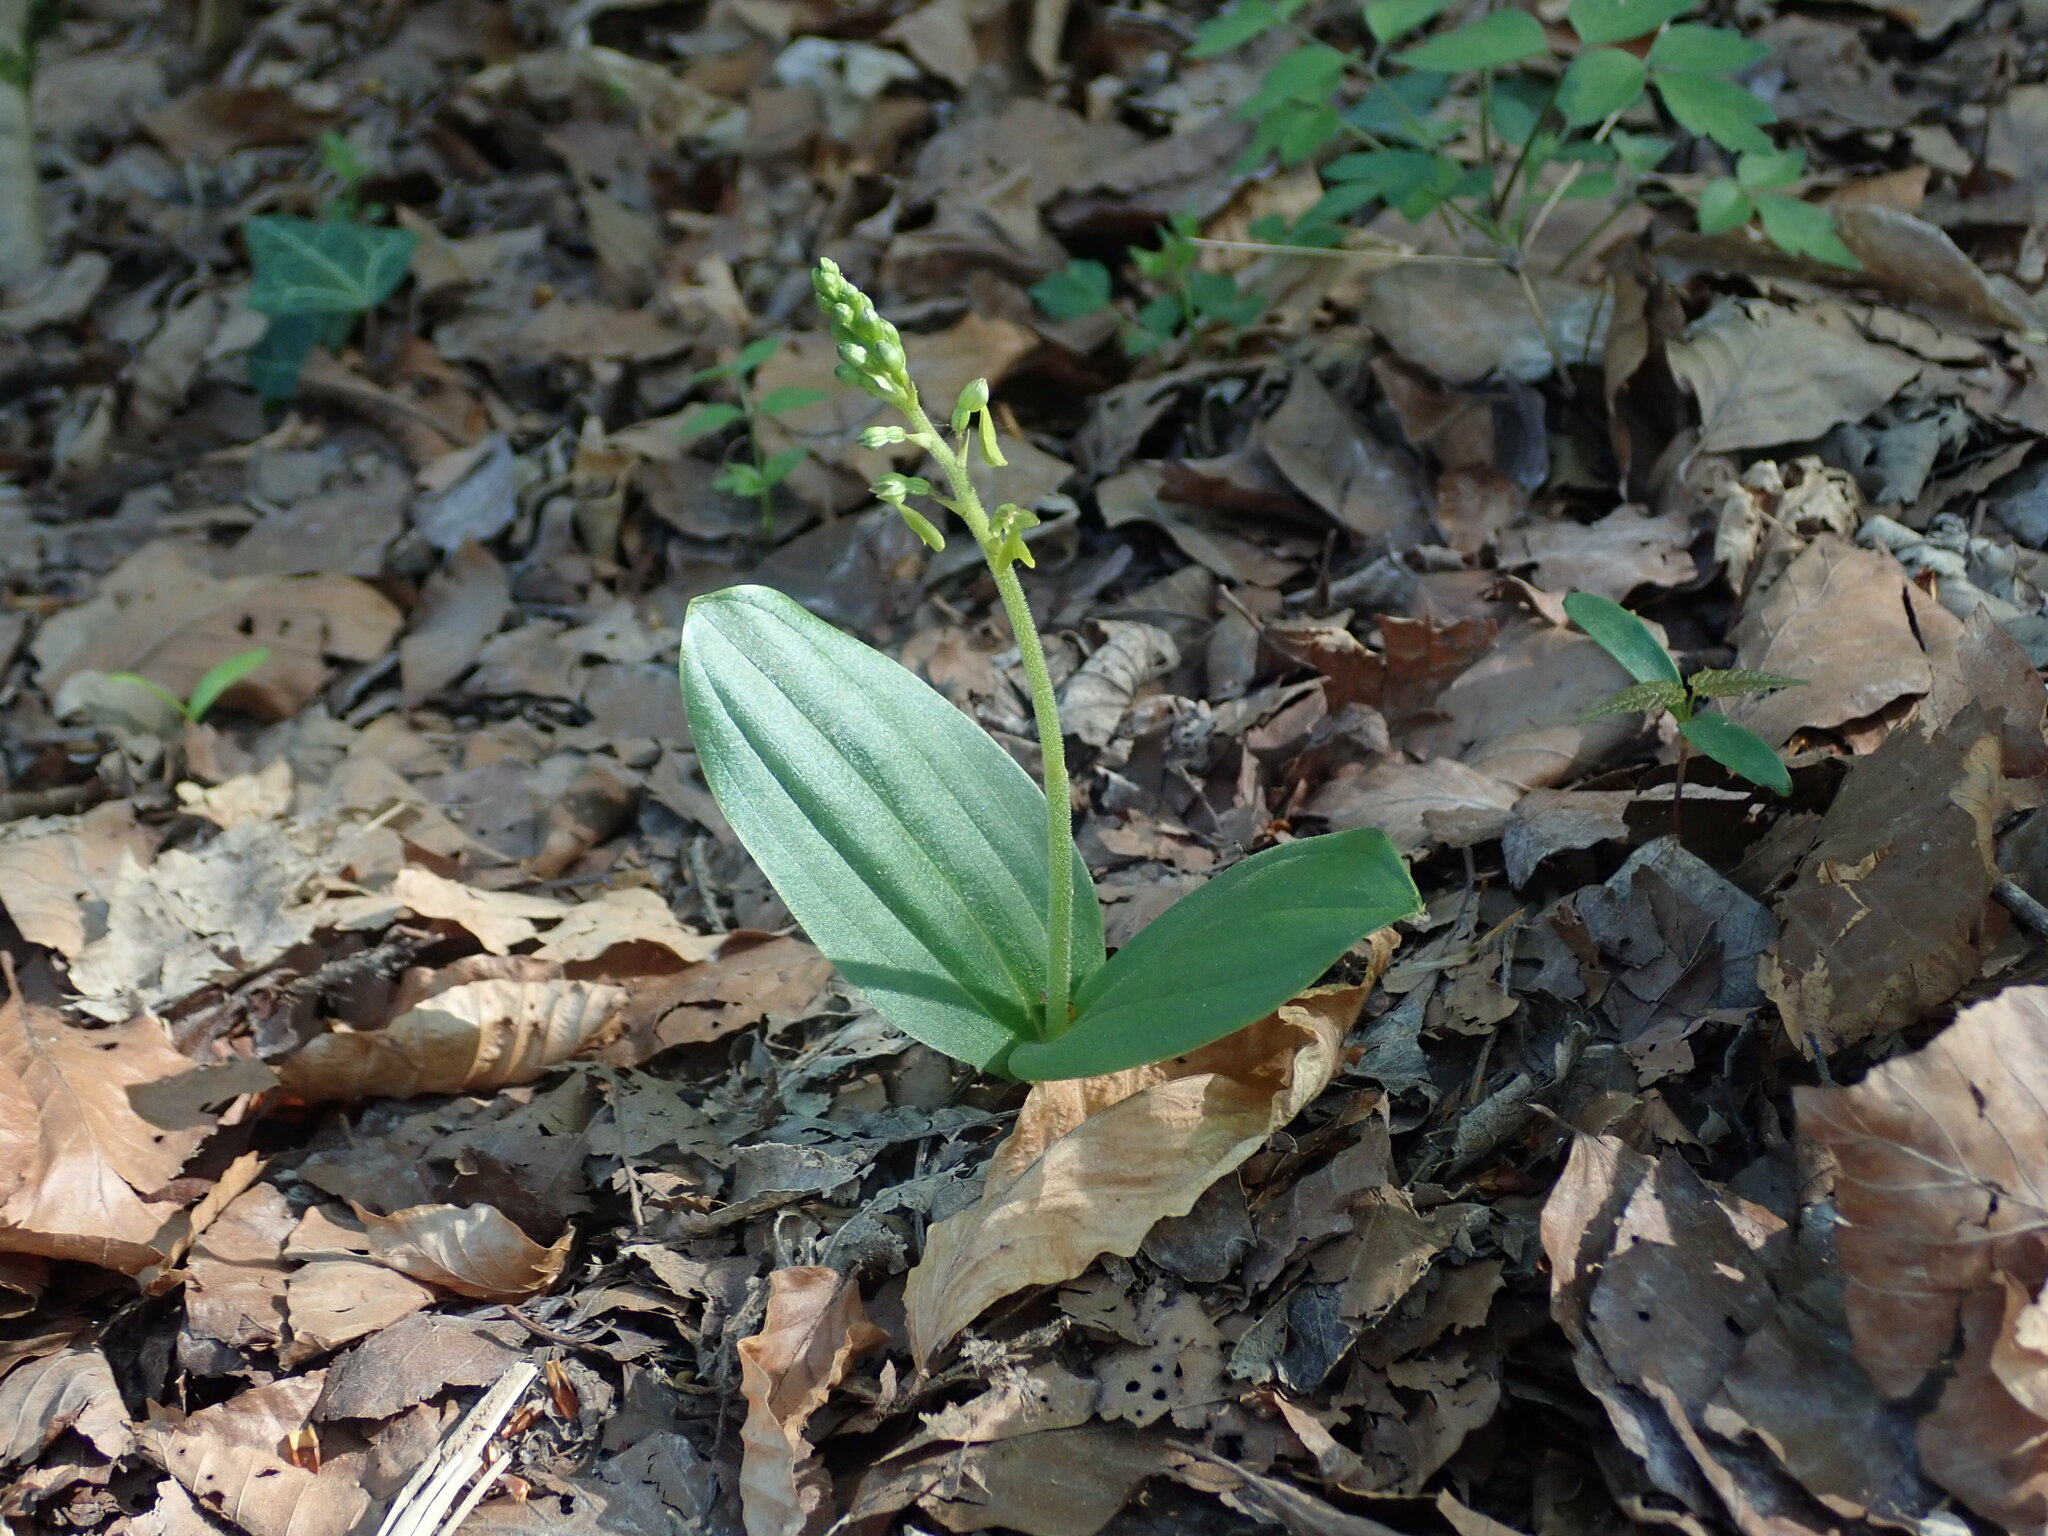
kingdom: Plantae
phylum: Tracheophyta
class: Liliopsida
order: Asparagales
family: Orchidaceae
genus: Neottia
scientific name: Neottia ovata
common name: Common twayblade
